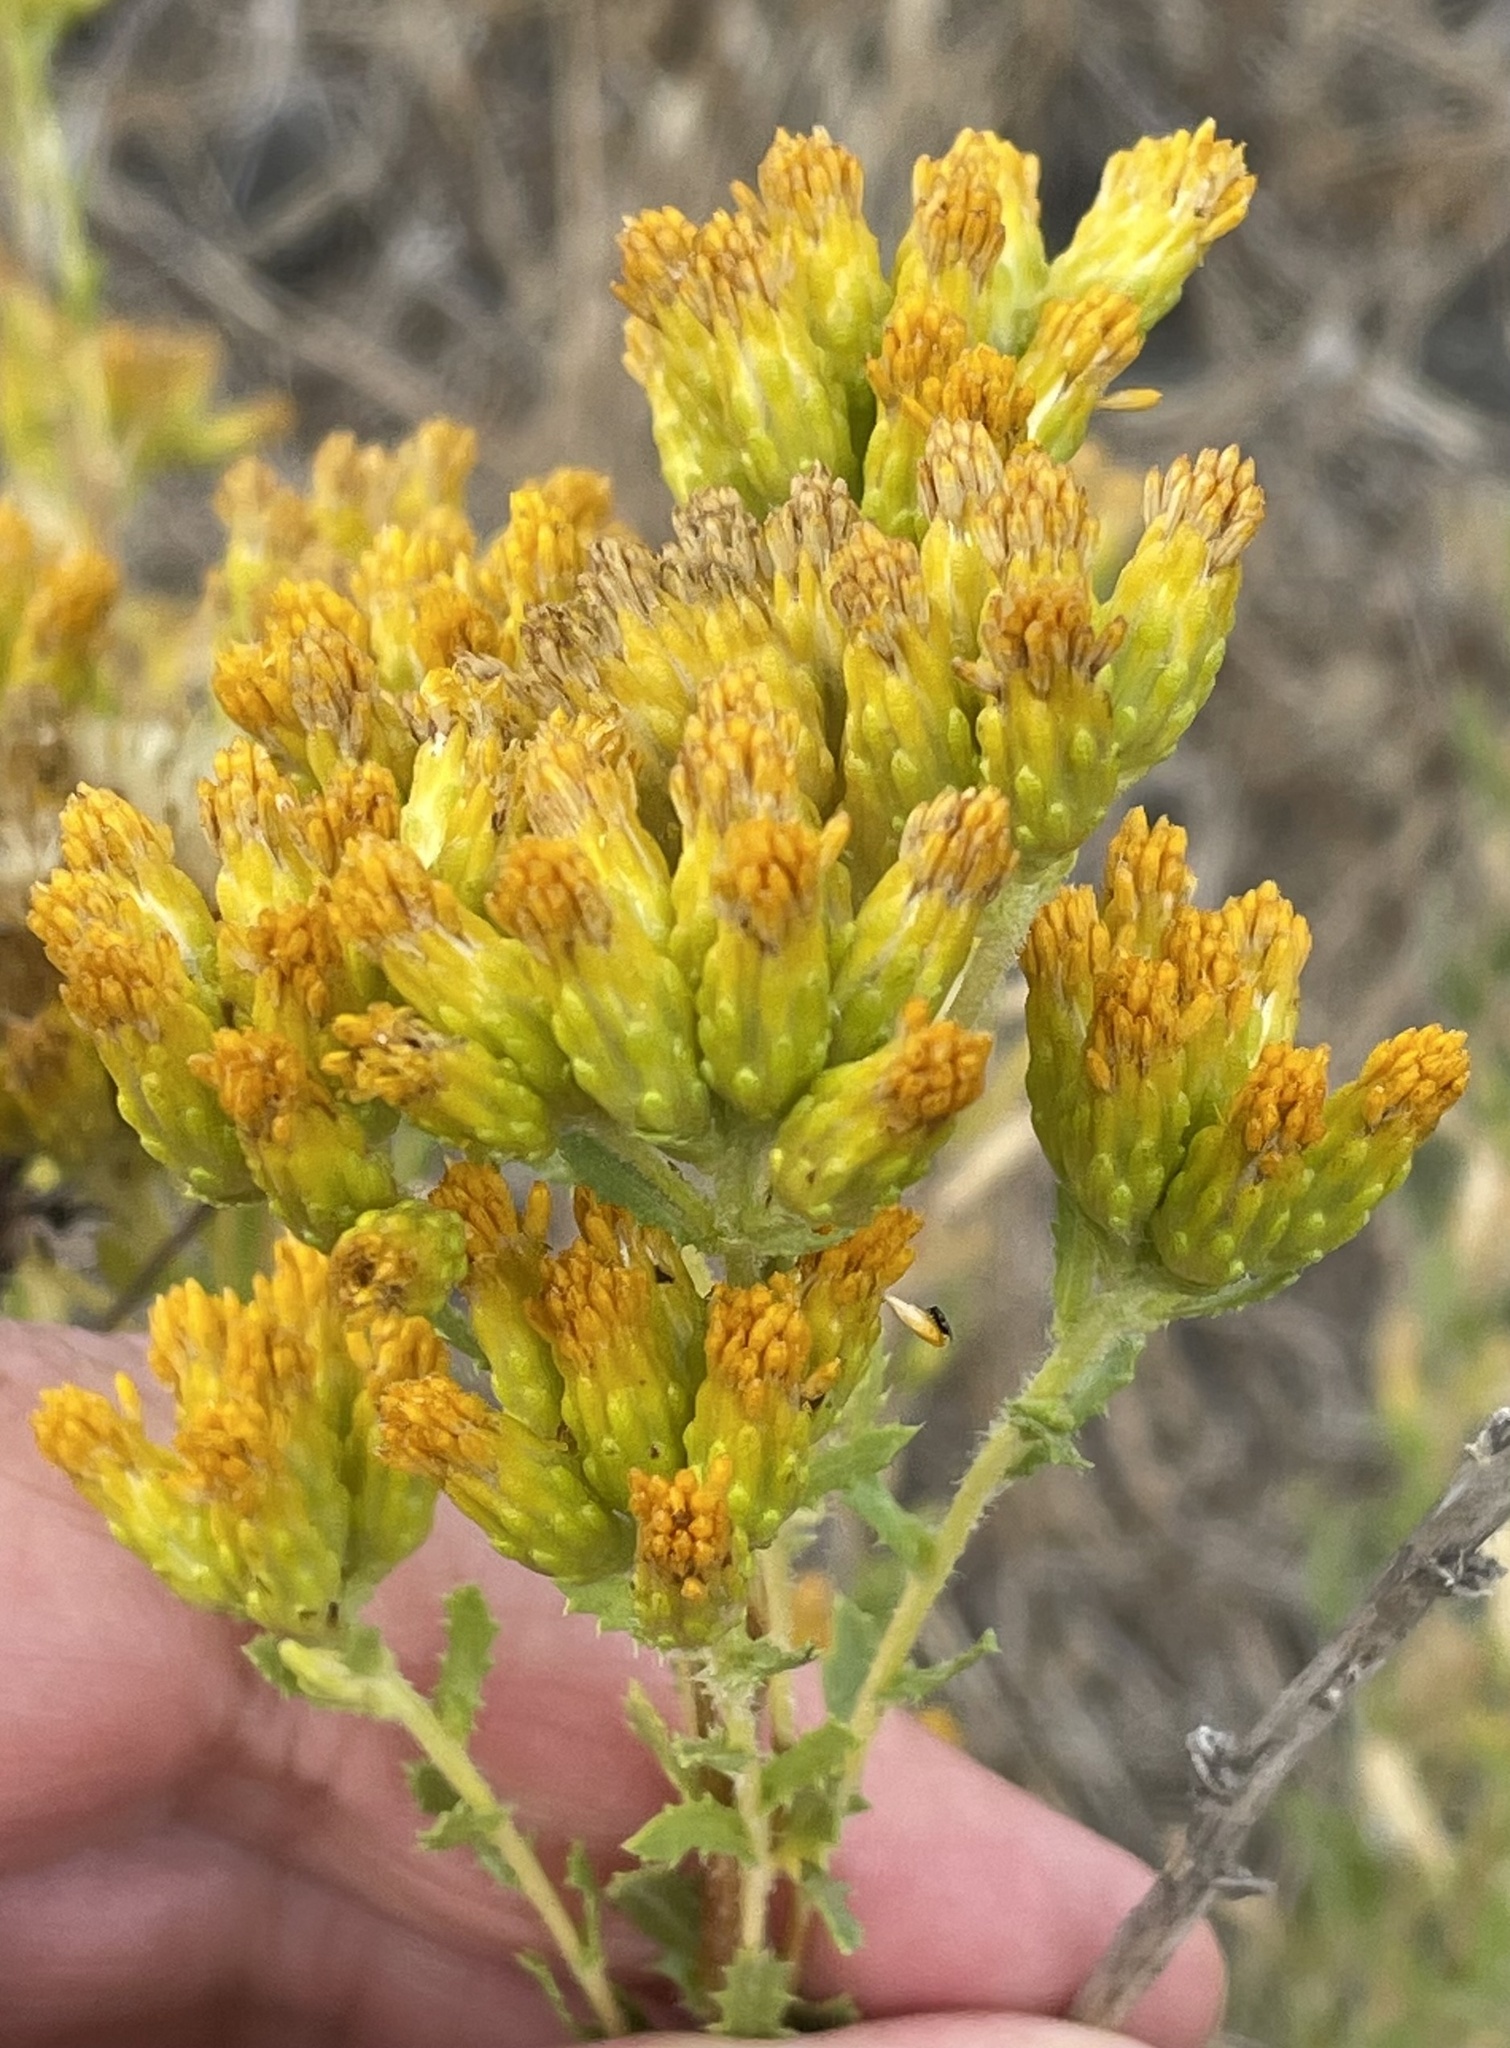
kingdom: Plantae
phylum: Tracheophyta
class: Magnoliopsida
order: Asterales
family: Asteraceae
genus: Isocoma
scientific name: Isocoma menziesii
